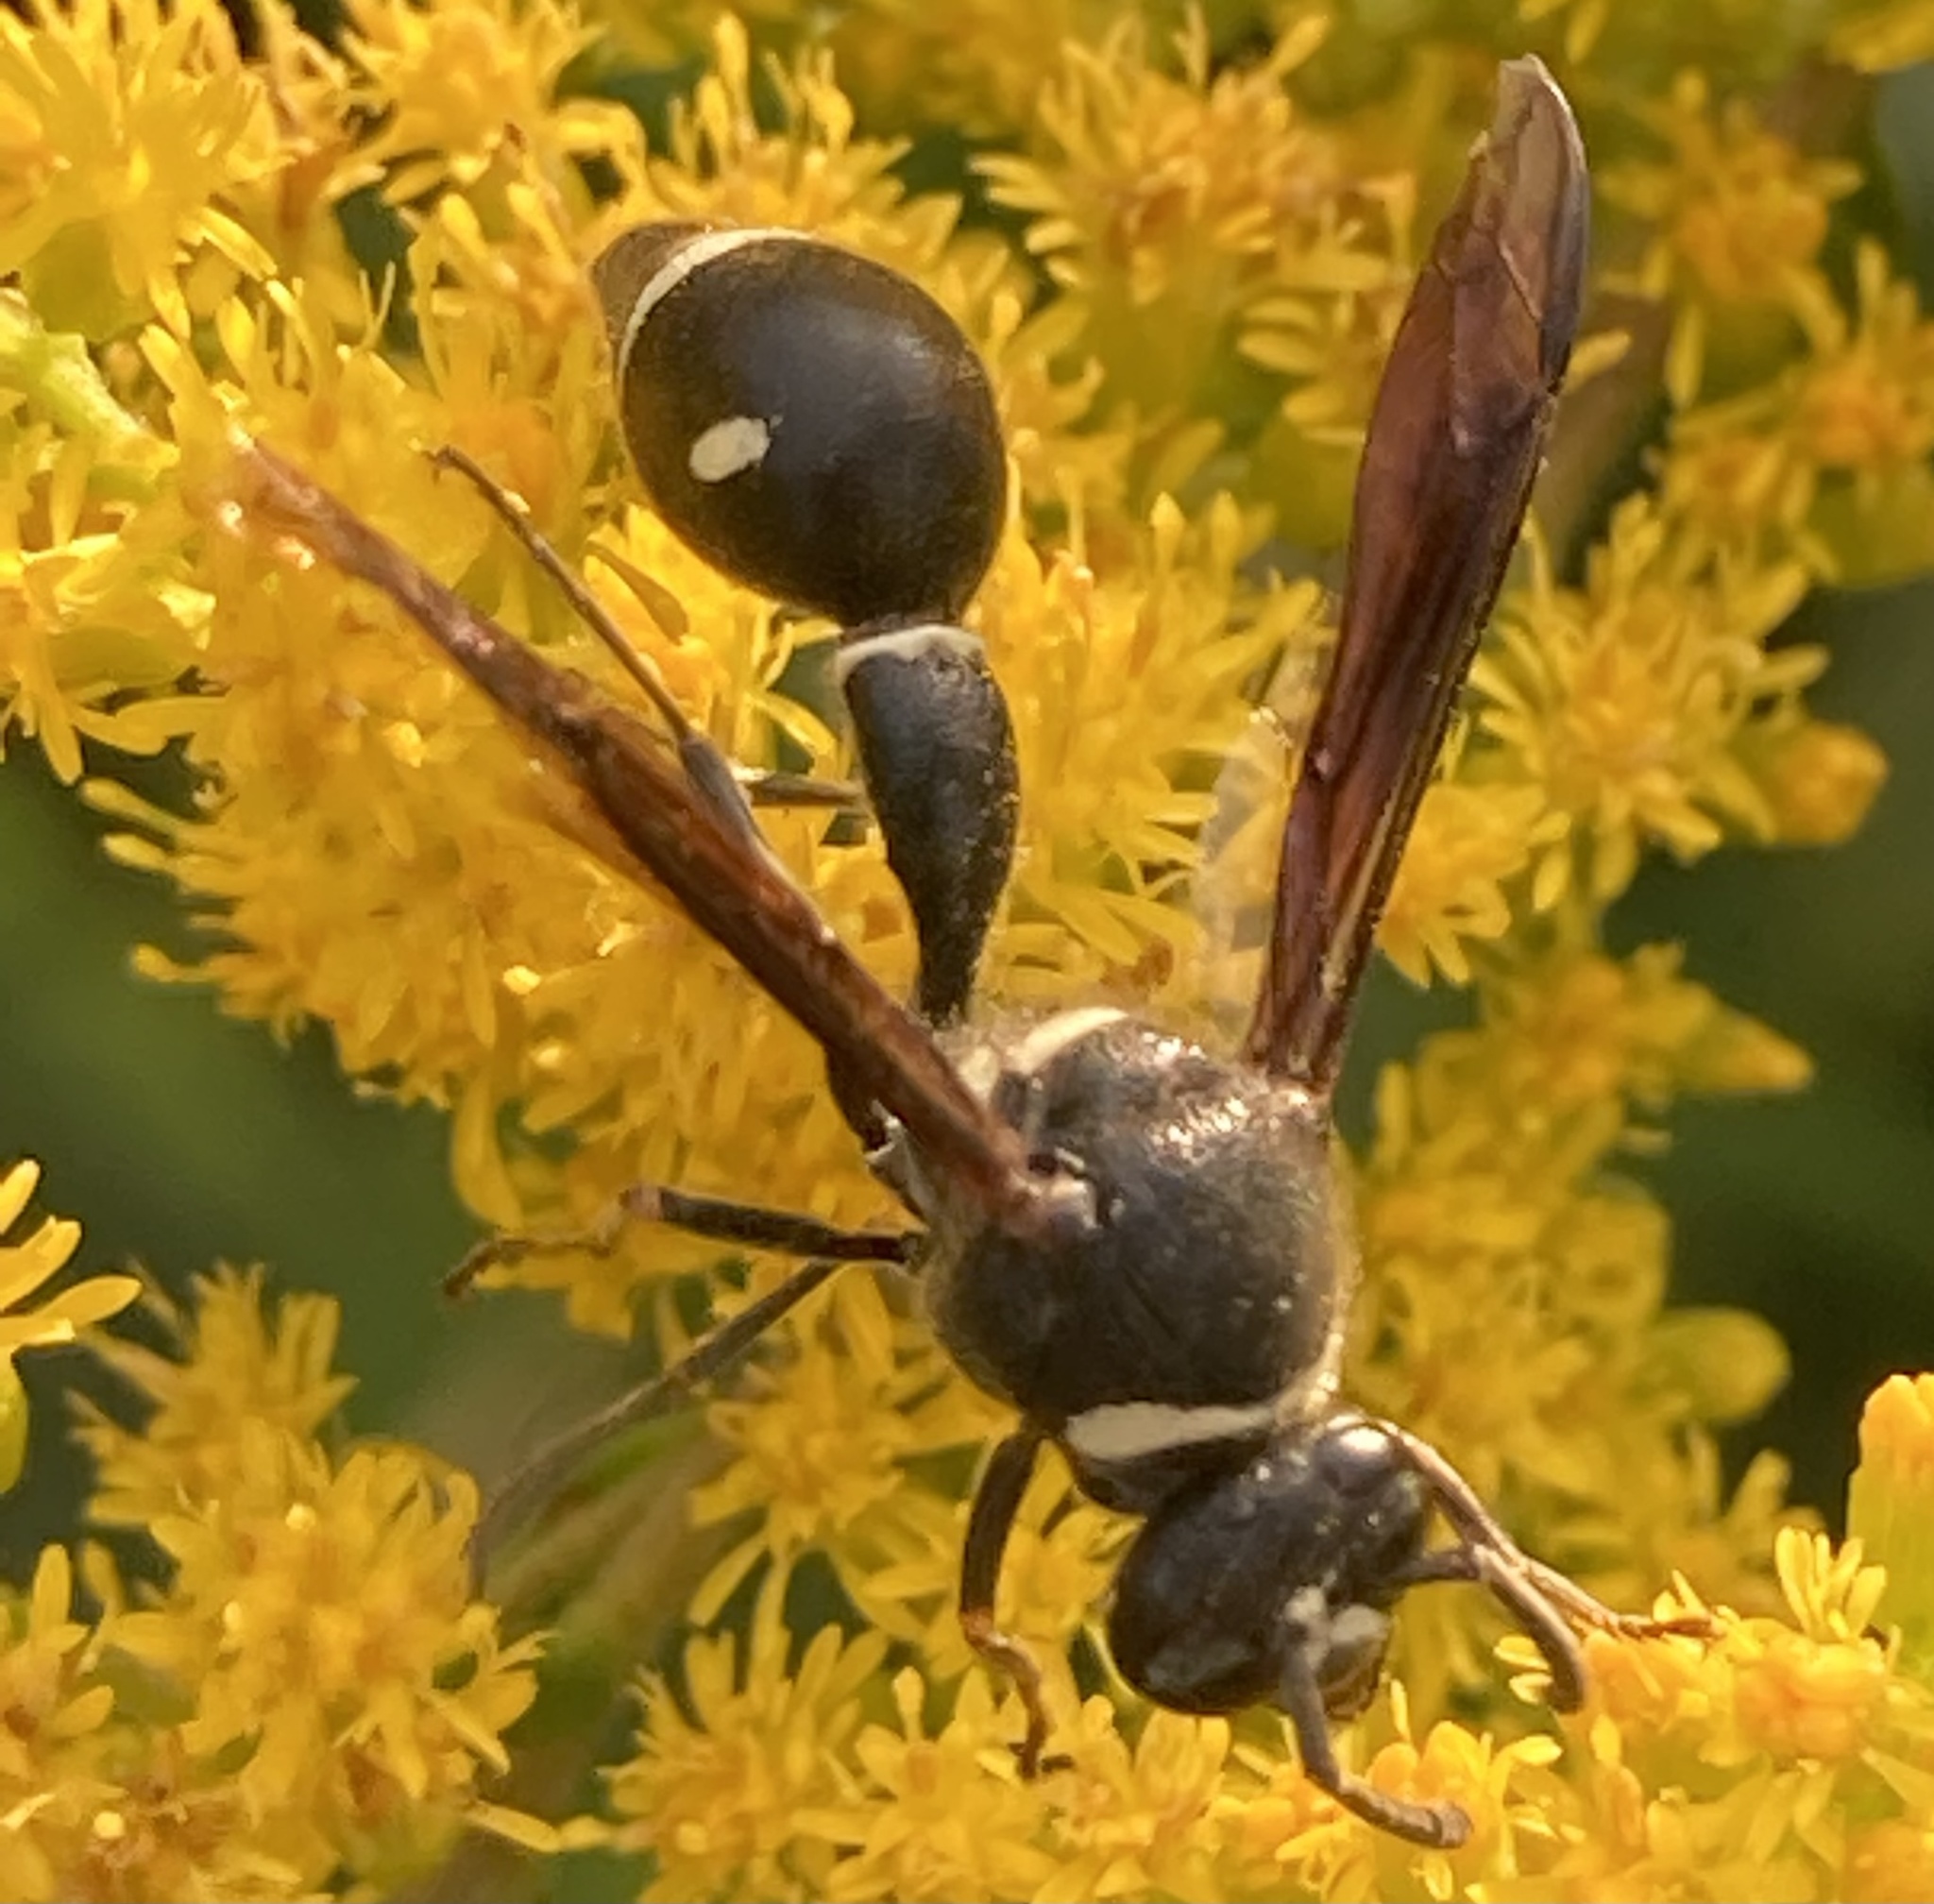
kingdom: Animalia
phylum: Arthropoda
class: Insecta
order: Hymenoptera
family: Vespidae
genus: Eumenes
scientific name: Eumenes fraternus
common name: Fraternal potter wasp
